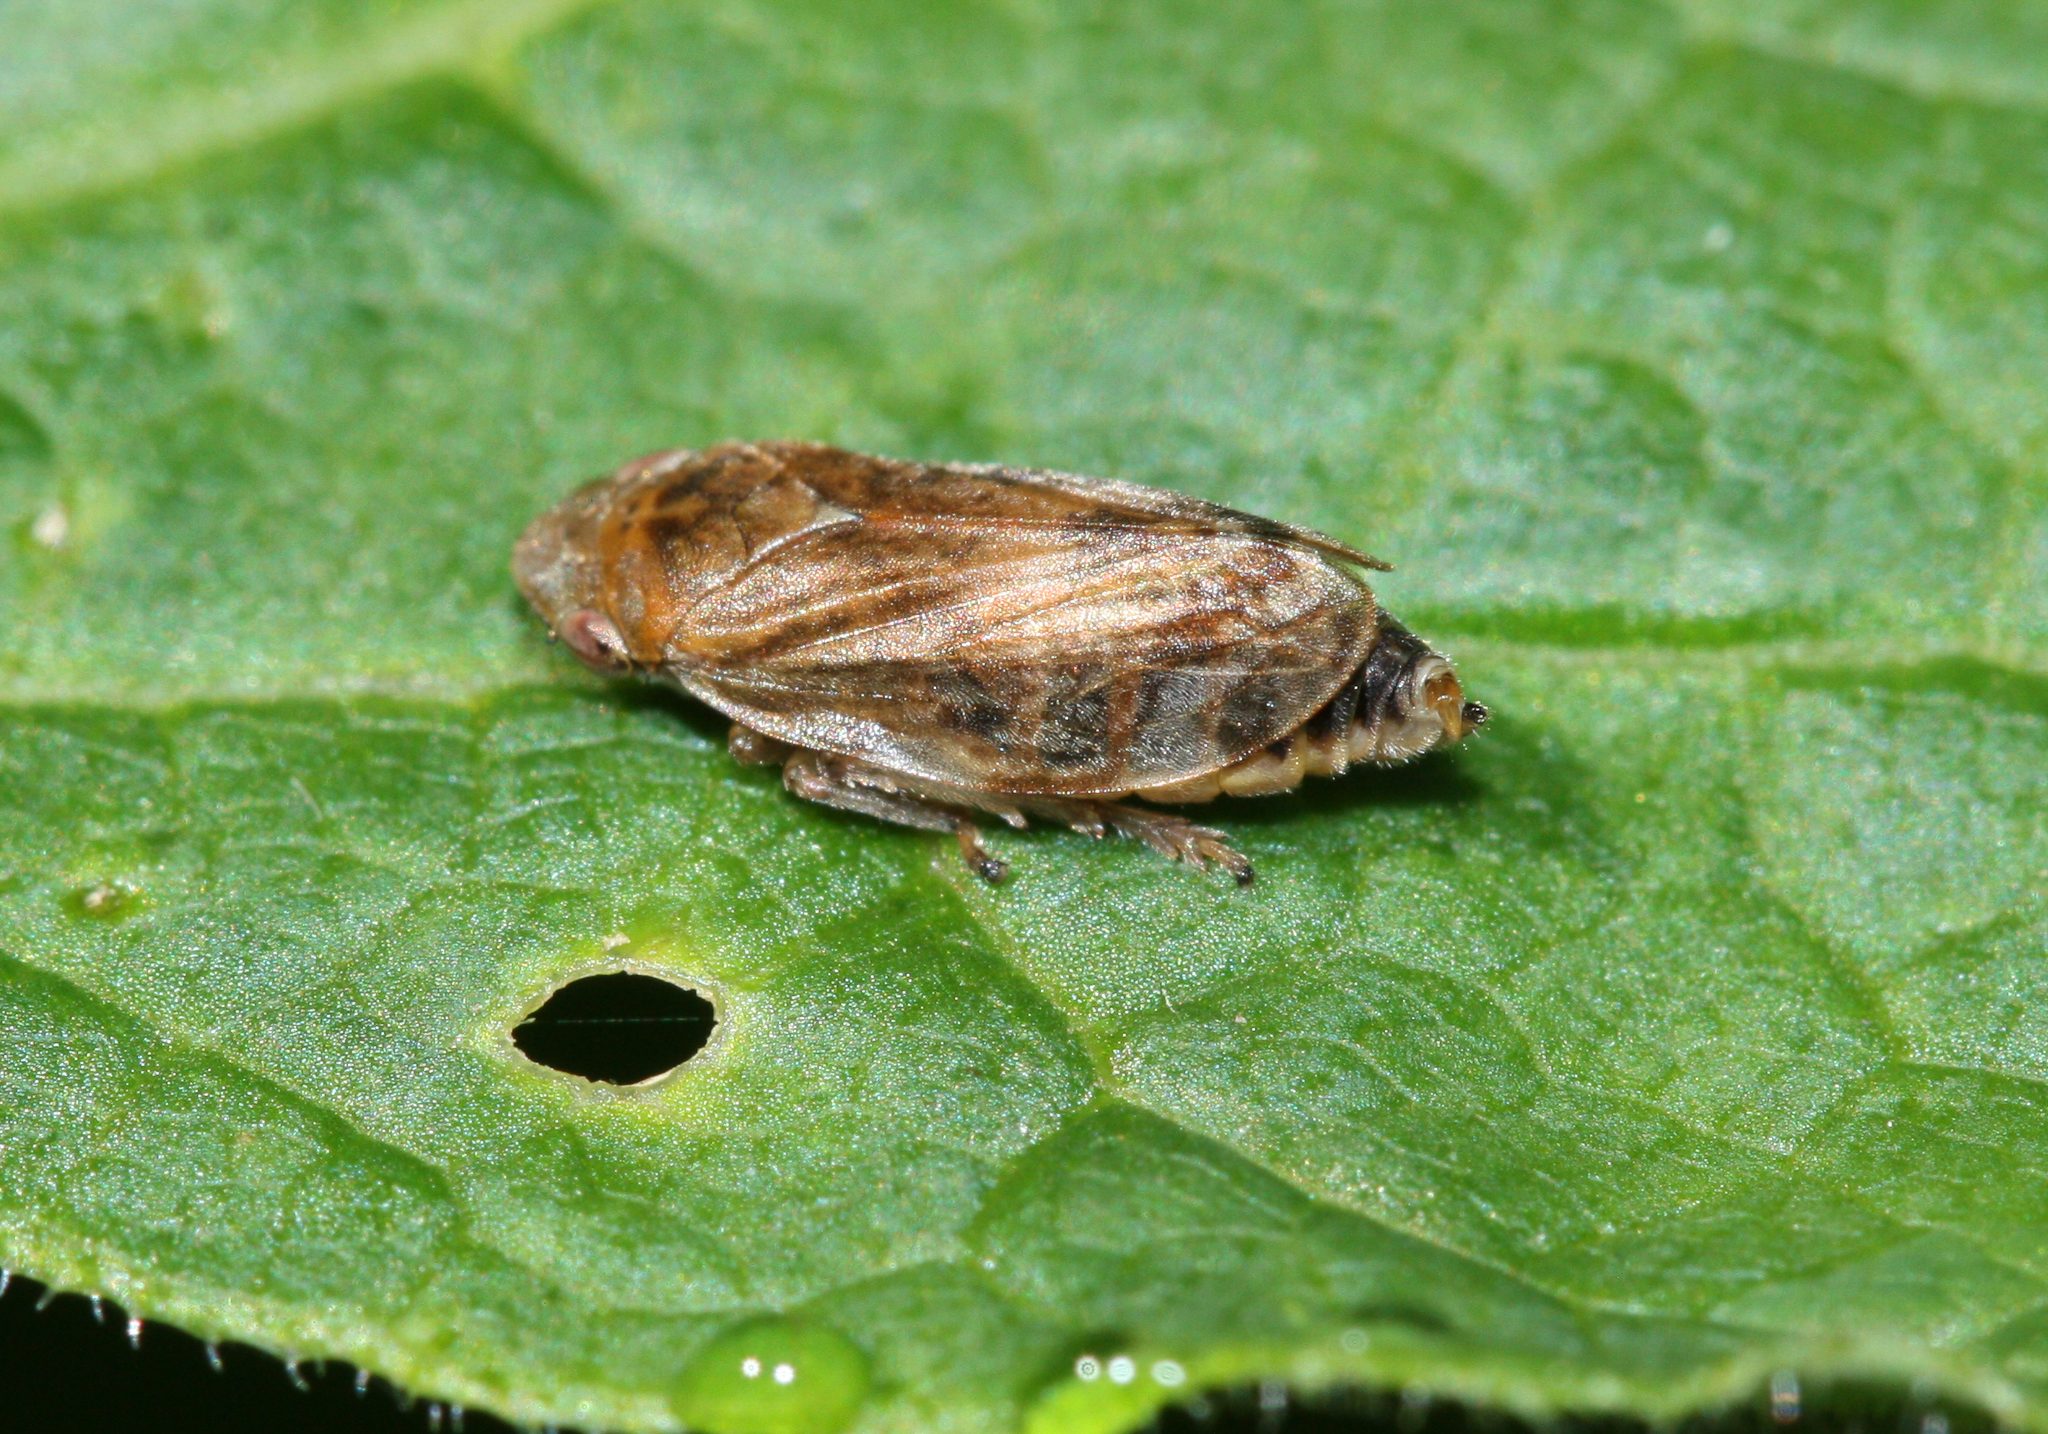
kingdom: Animalia
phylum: Arthropoda
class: Insecta
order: Hemiptera
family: Aphrophoridae
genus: Philaenus
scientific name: Philaenus spumarius
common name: Meadow spittlebug
